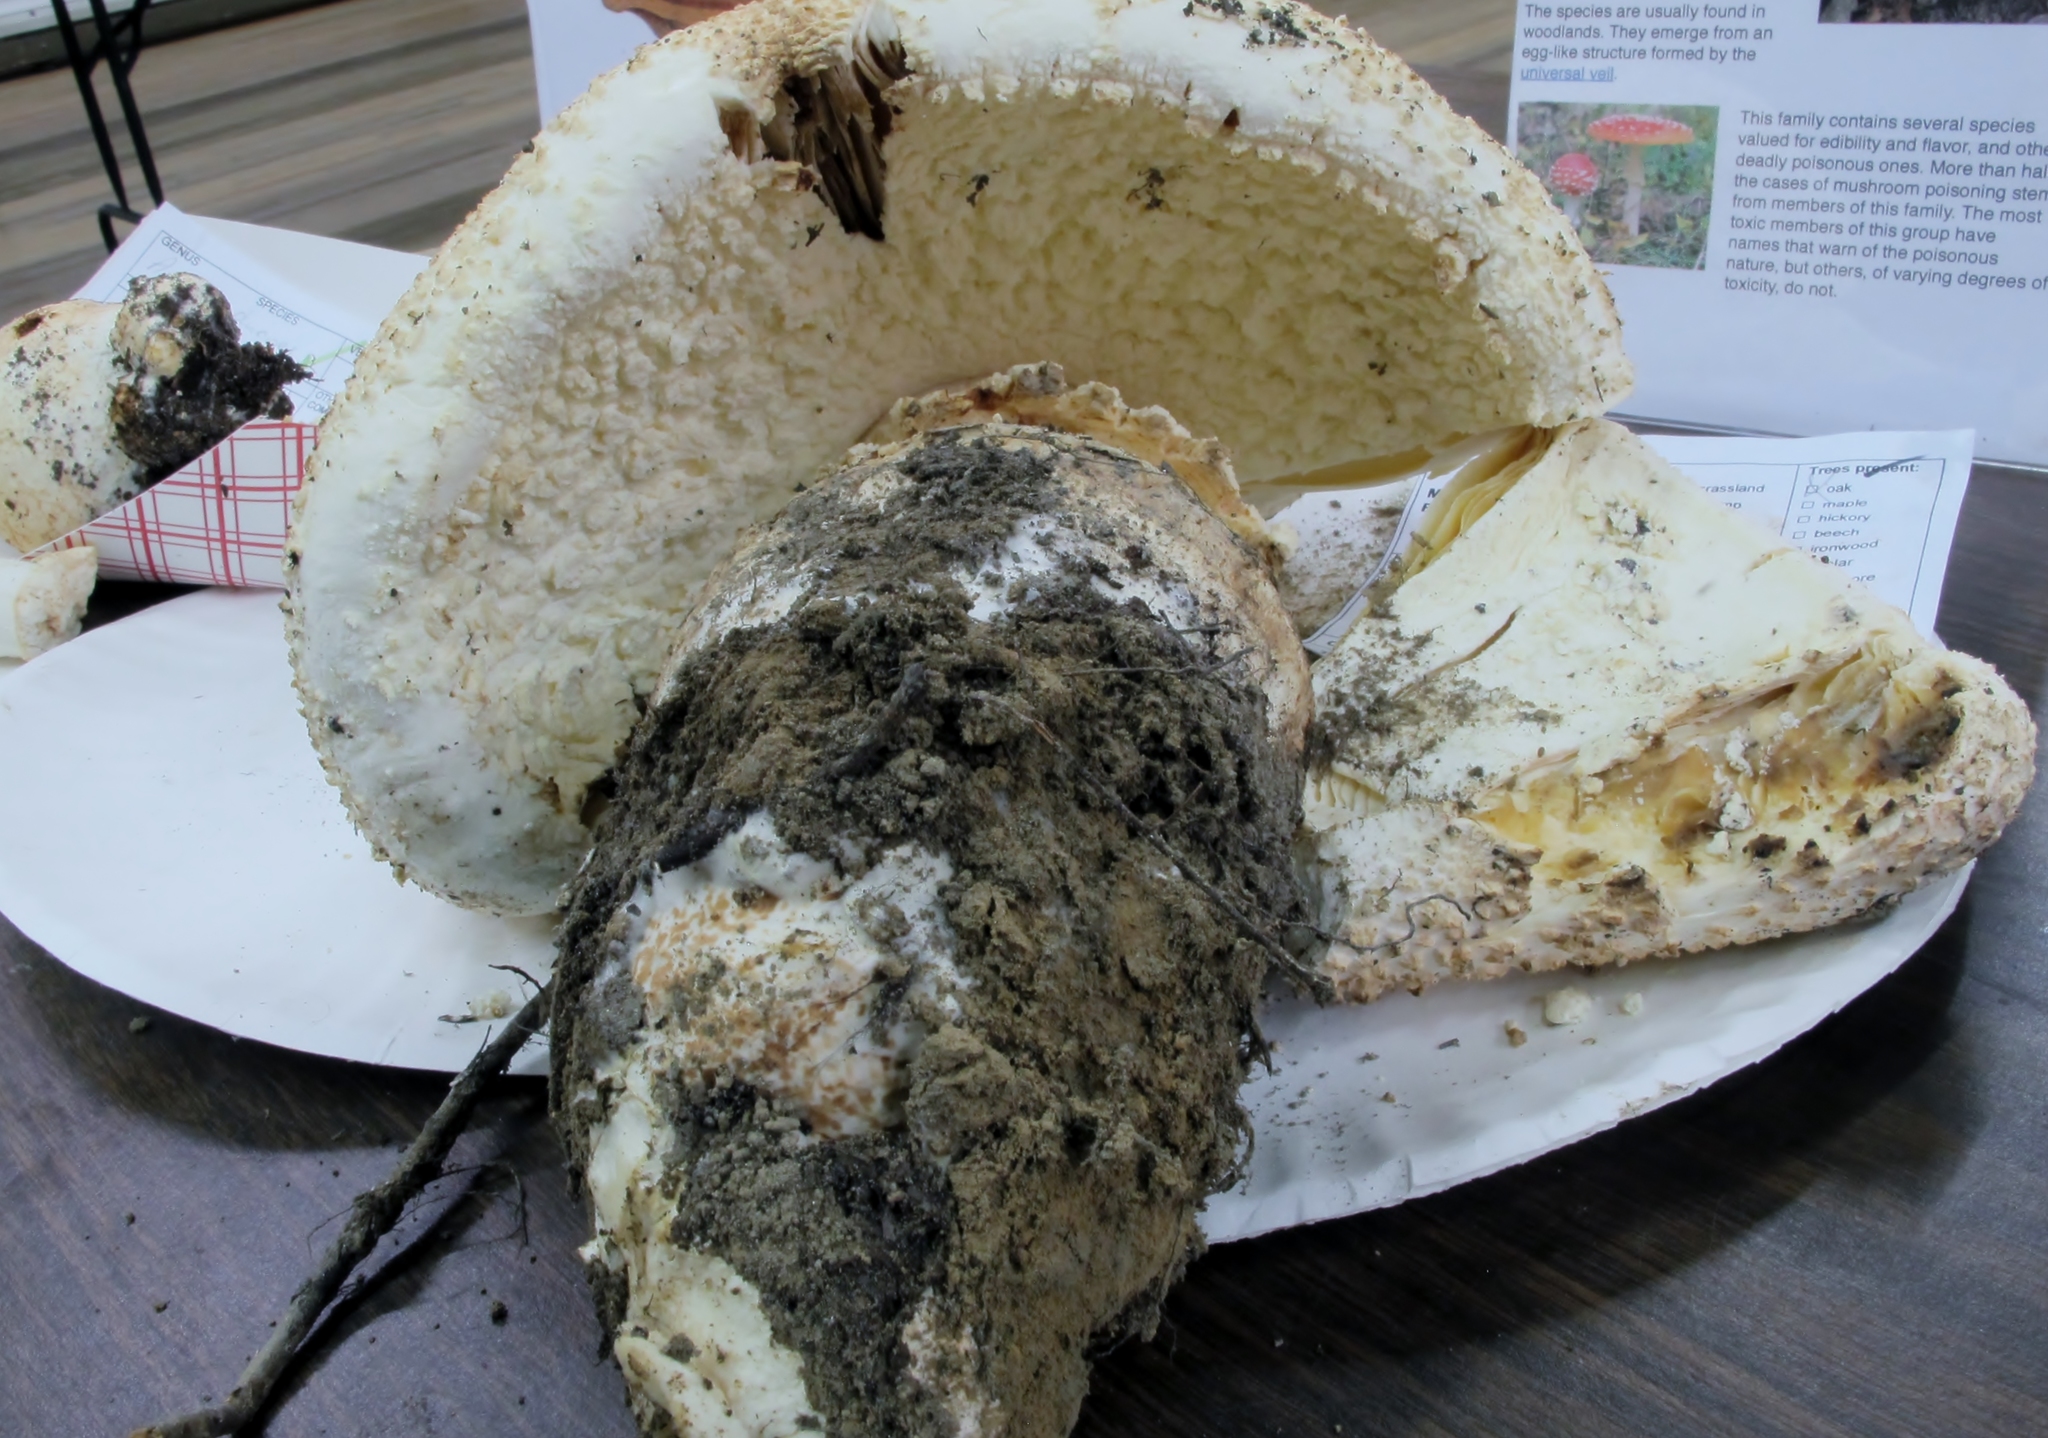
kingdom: Fungi
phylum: Basidiomycota
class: Agaricomycetes
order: Agaricales
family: Amanitaceae
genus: Amanita
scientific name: Amanita daucipes
